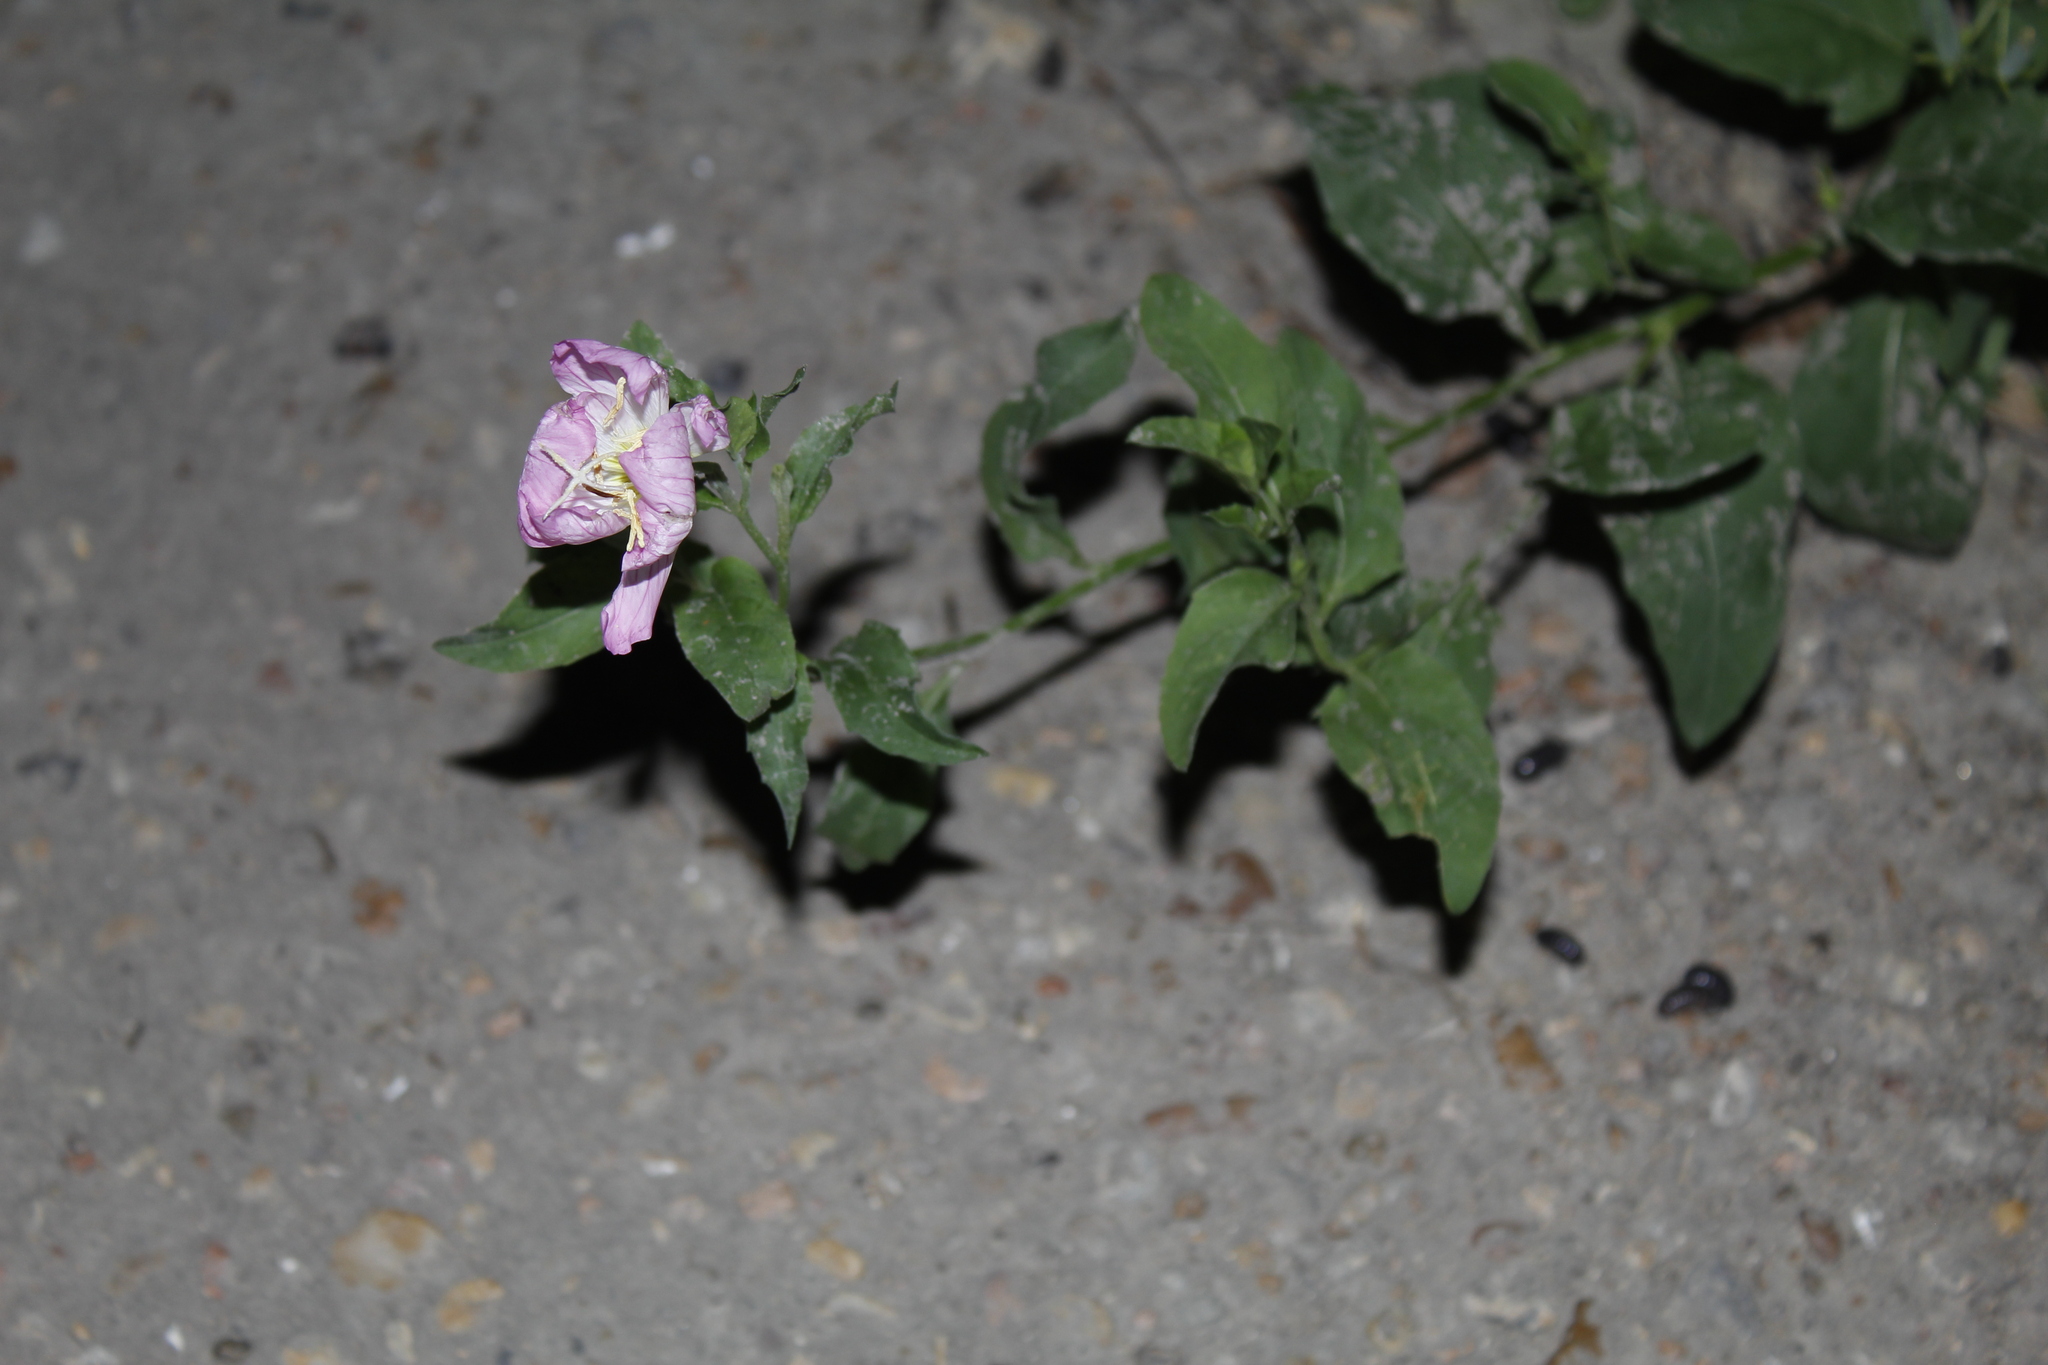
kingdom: Plantae
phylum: Tracheophyta
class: Magnoliopsida
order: Myrtales
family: Onagraceae
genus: Oenothera
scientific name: Oenothera speciosa
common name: White evening-primrose
